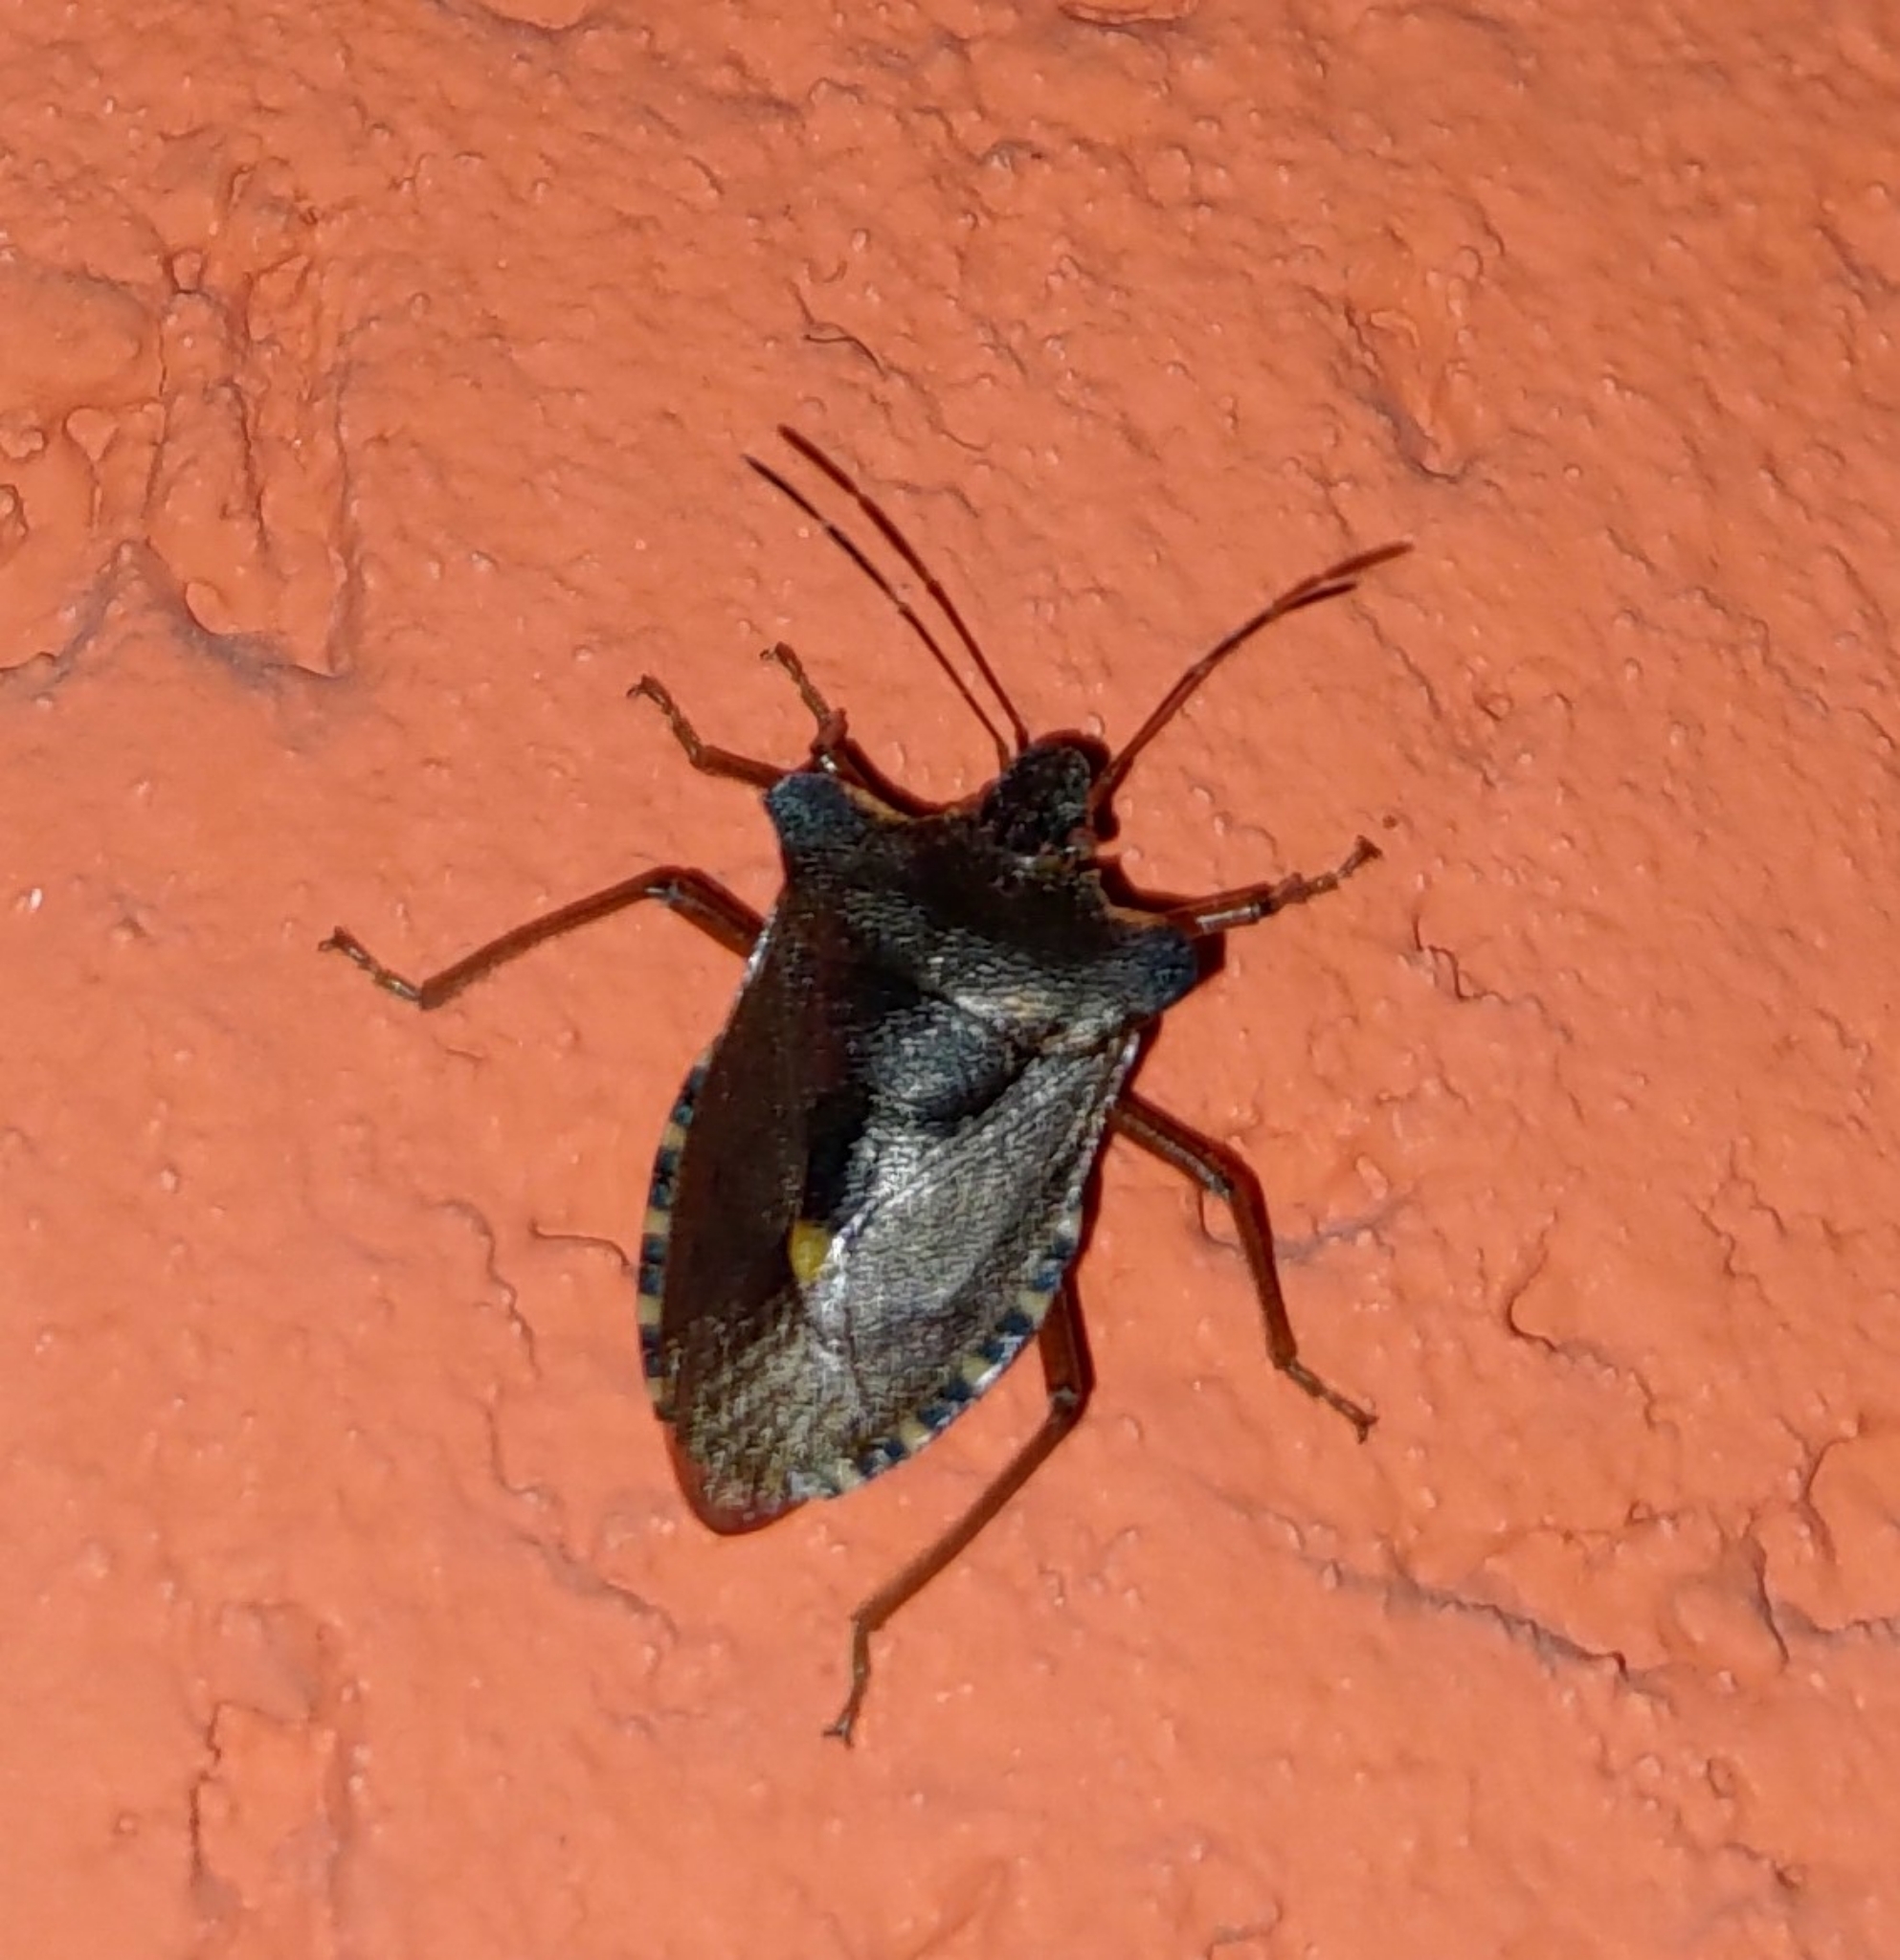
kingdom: Animalia
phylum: Arthropoda
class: Insecta
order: Hemiptera
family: Pentatomidae
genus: Pentatoma
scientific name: Pentatoma rufipes
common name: Forest bug
